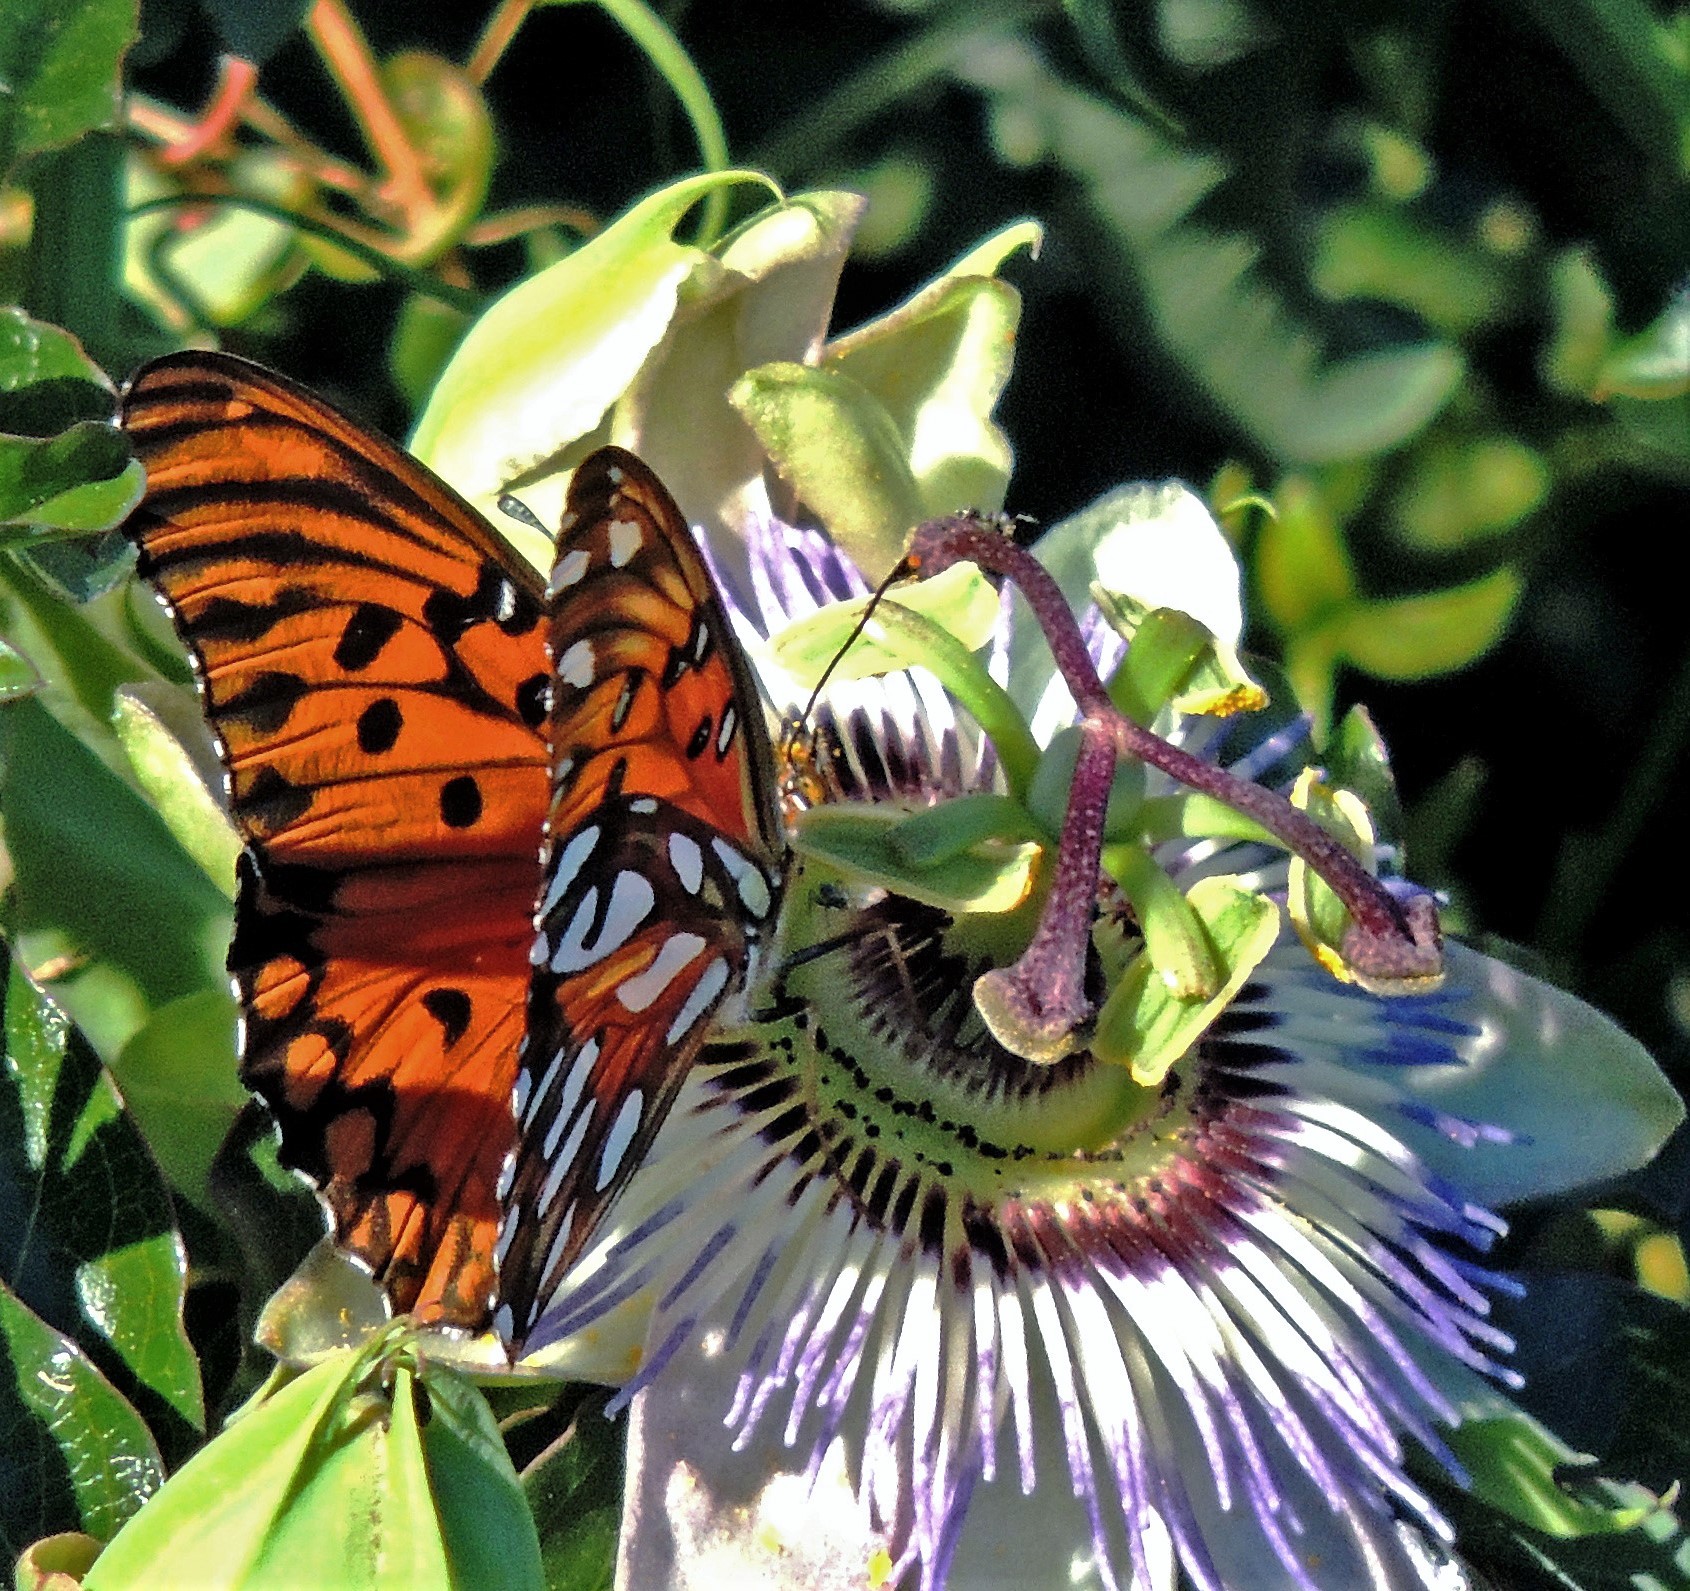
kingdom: Animalia
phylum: Arthropoda
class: Insecta
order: Lepidoptera
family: Nymphalidae
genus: Dione
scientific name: Dione vanillae
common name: Gulf fritillary
